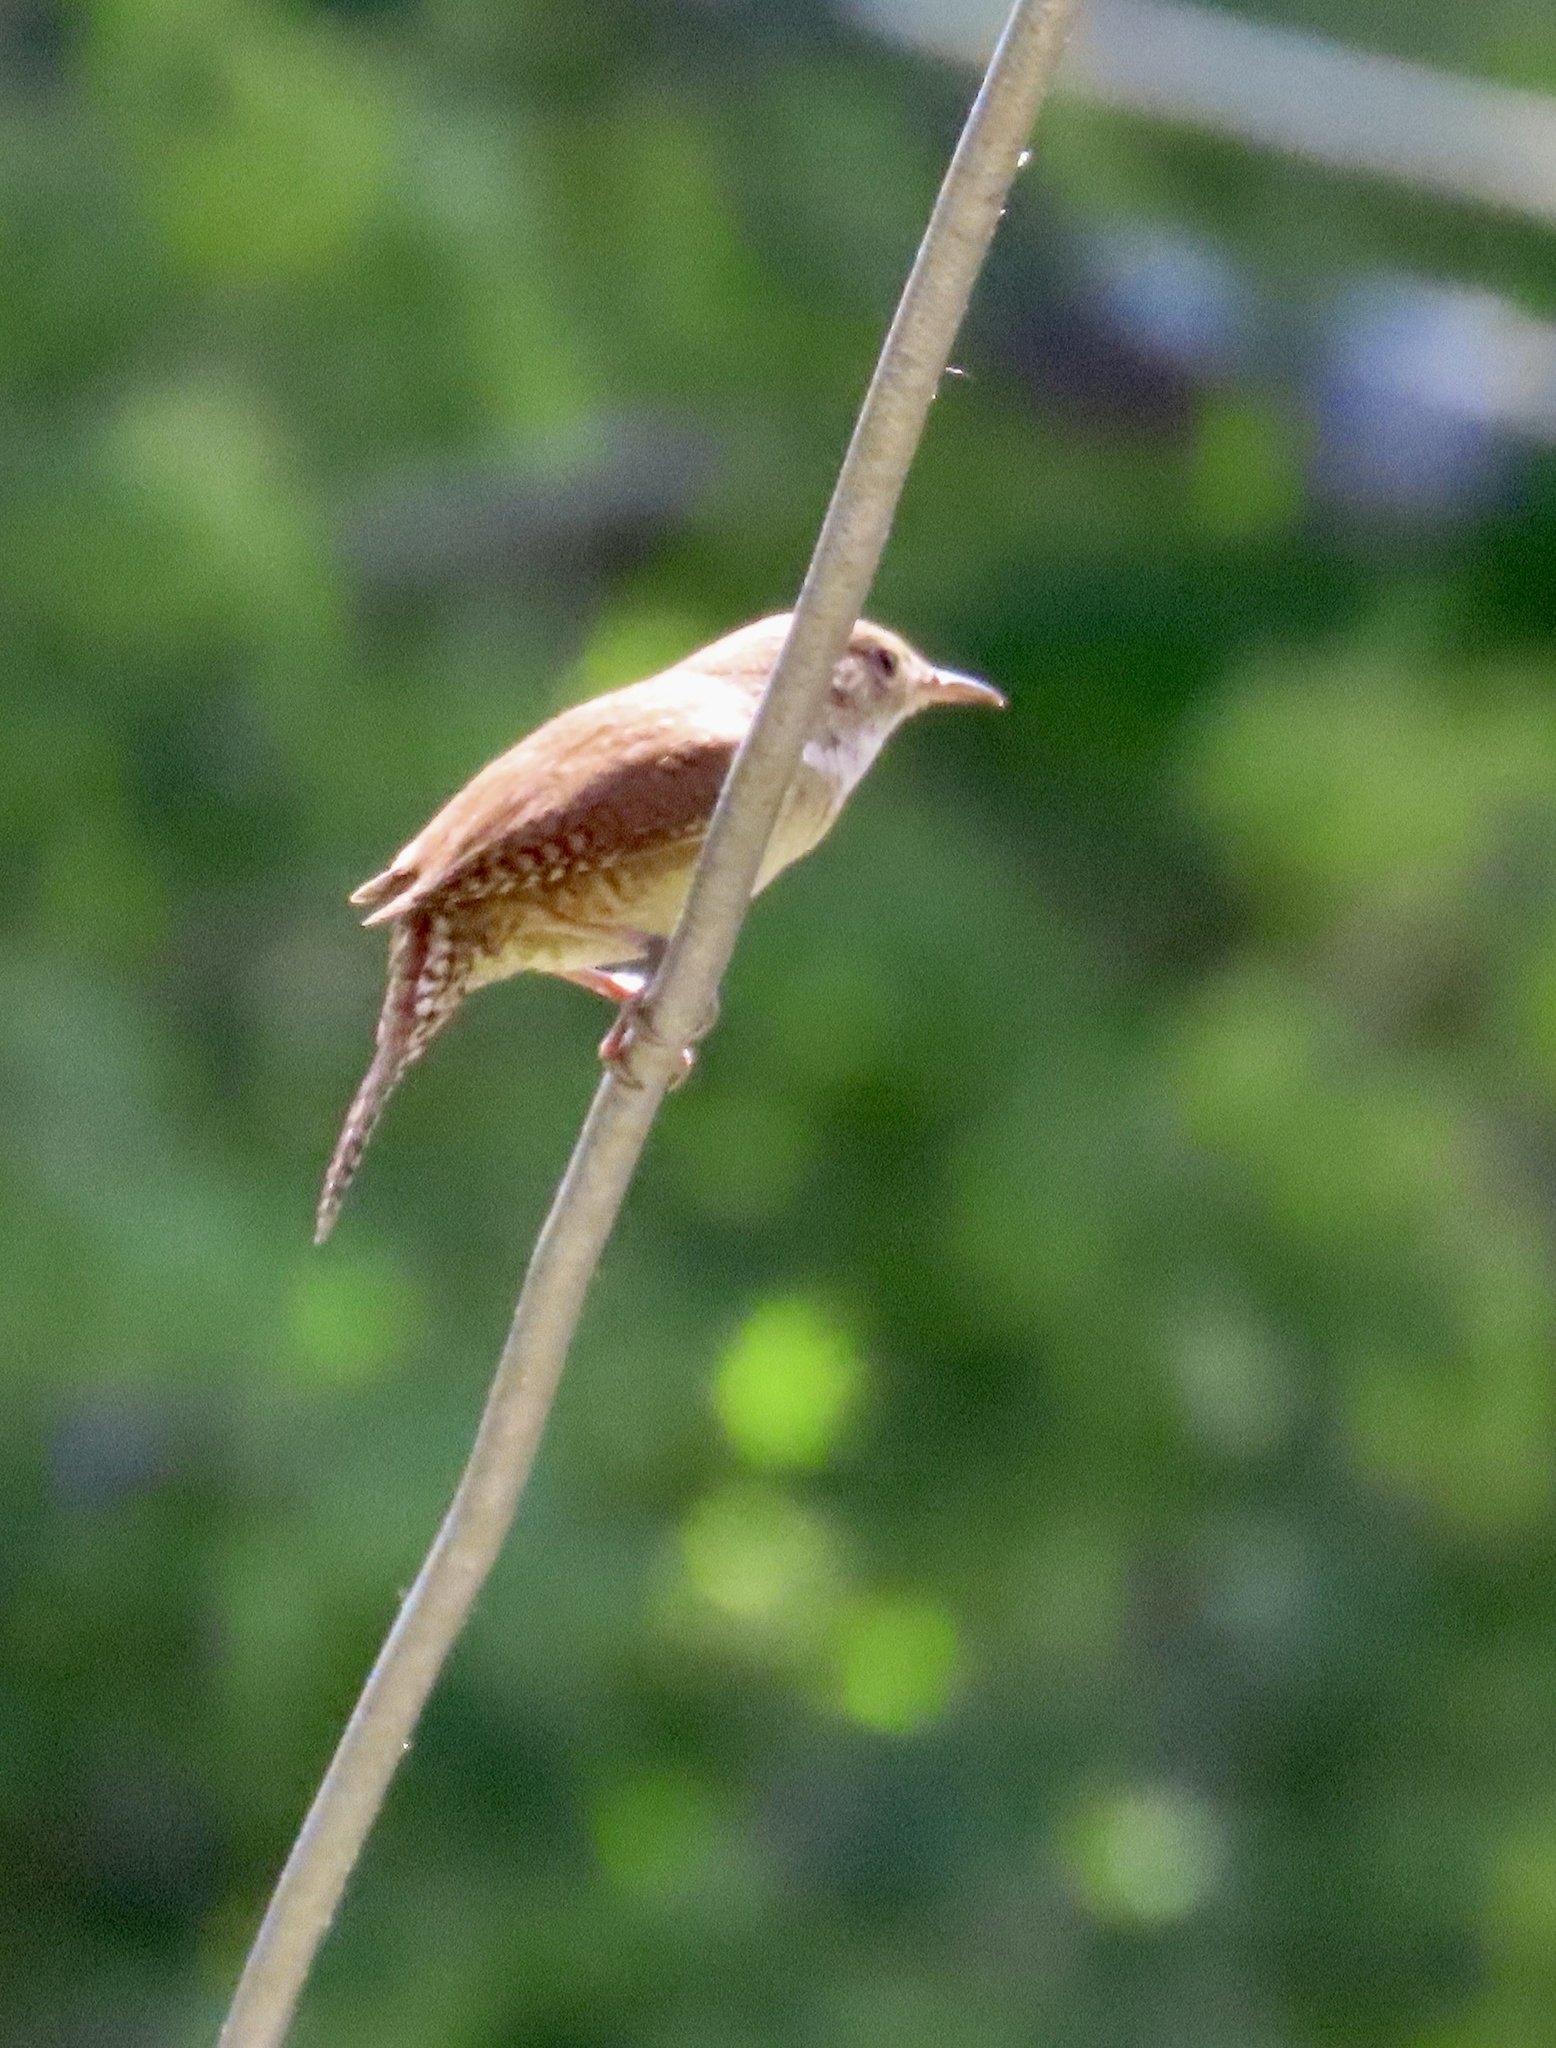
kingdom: Animalia
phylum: Chordata
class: Aves
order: Passeriformes
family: Troglodytidae
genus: Troglodytes
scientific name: Troglodytes aedon
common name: House wren
